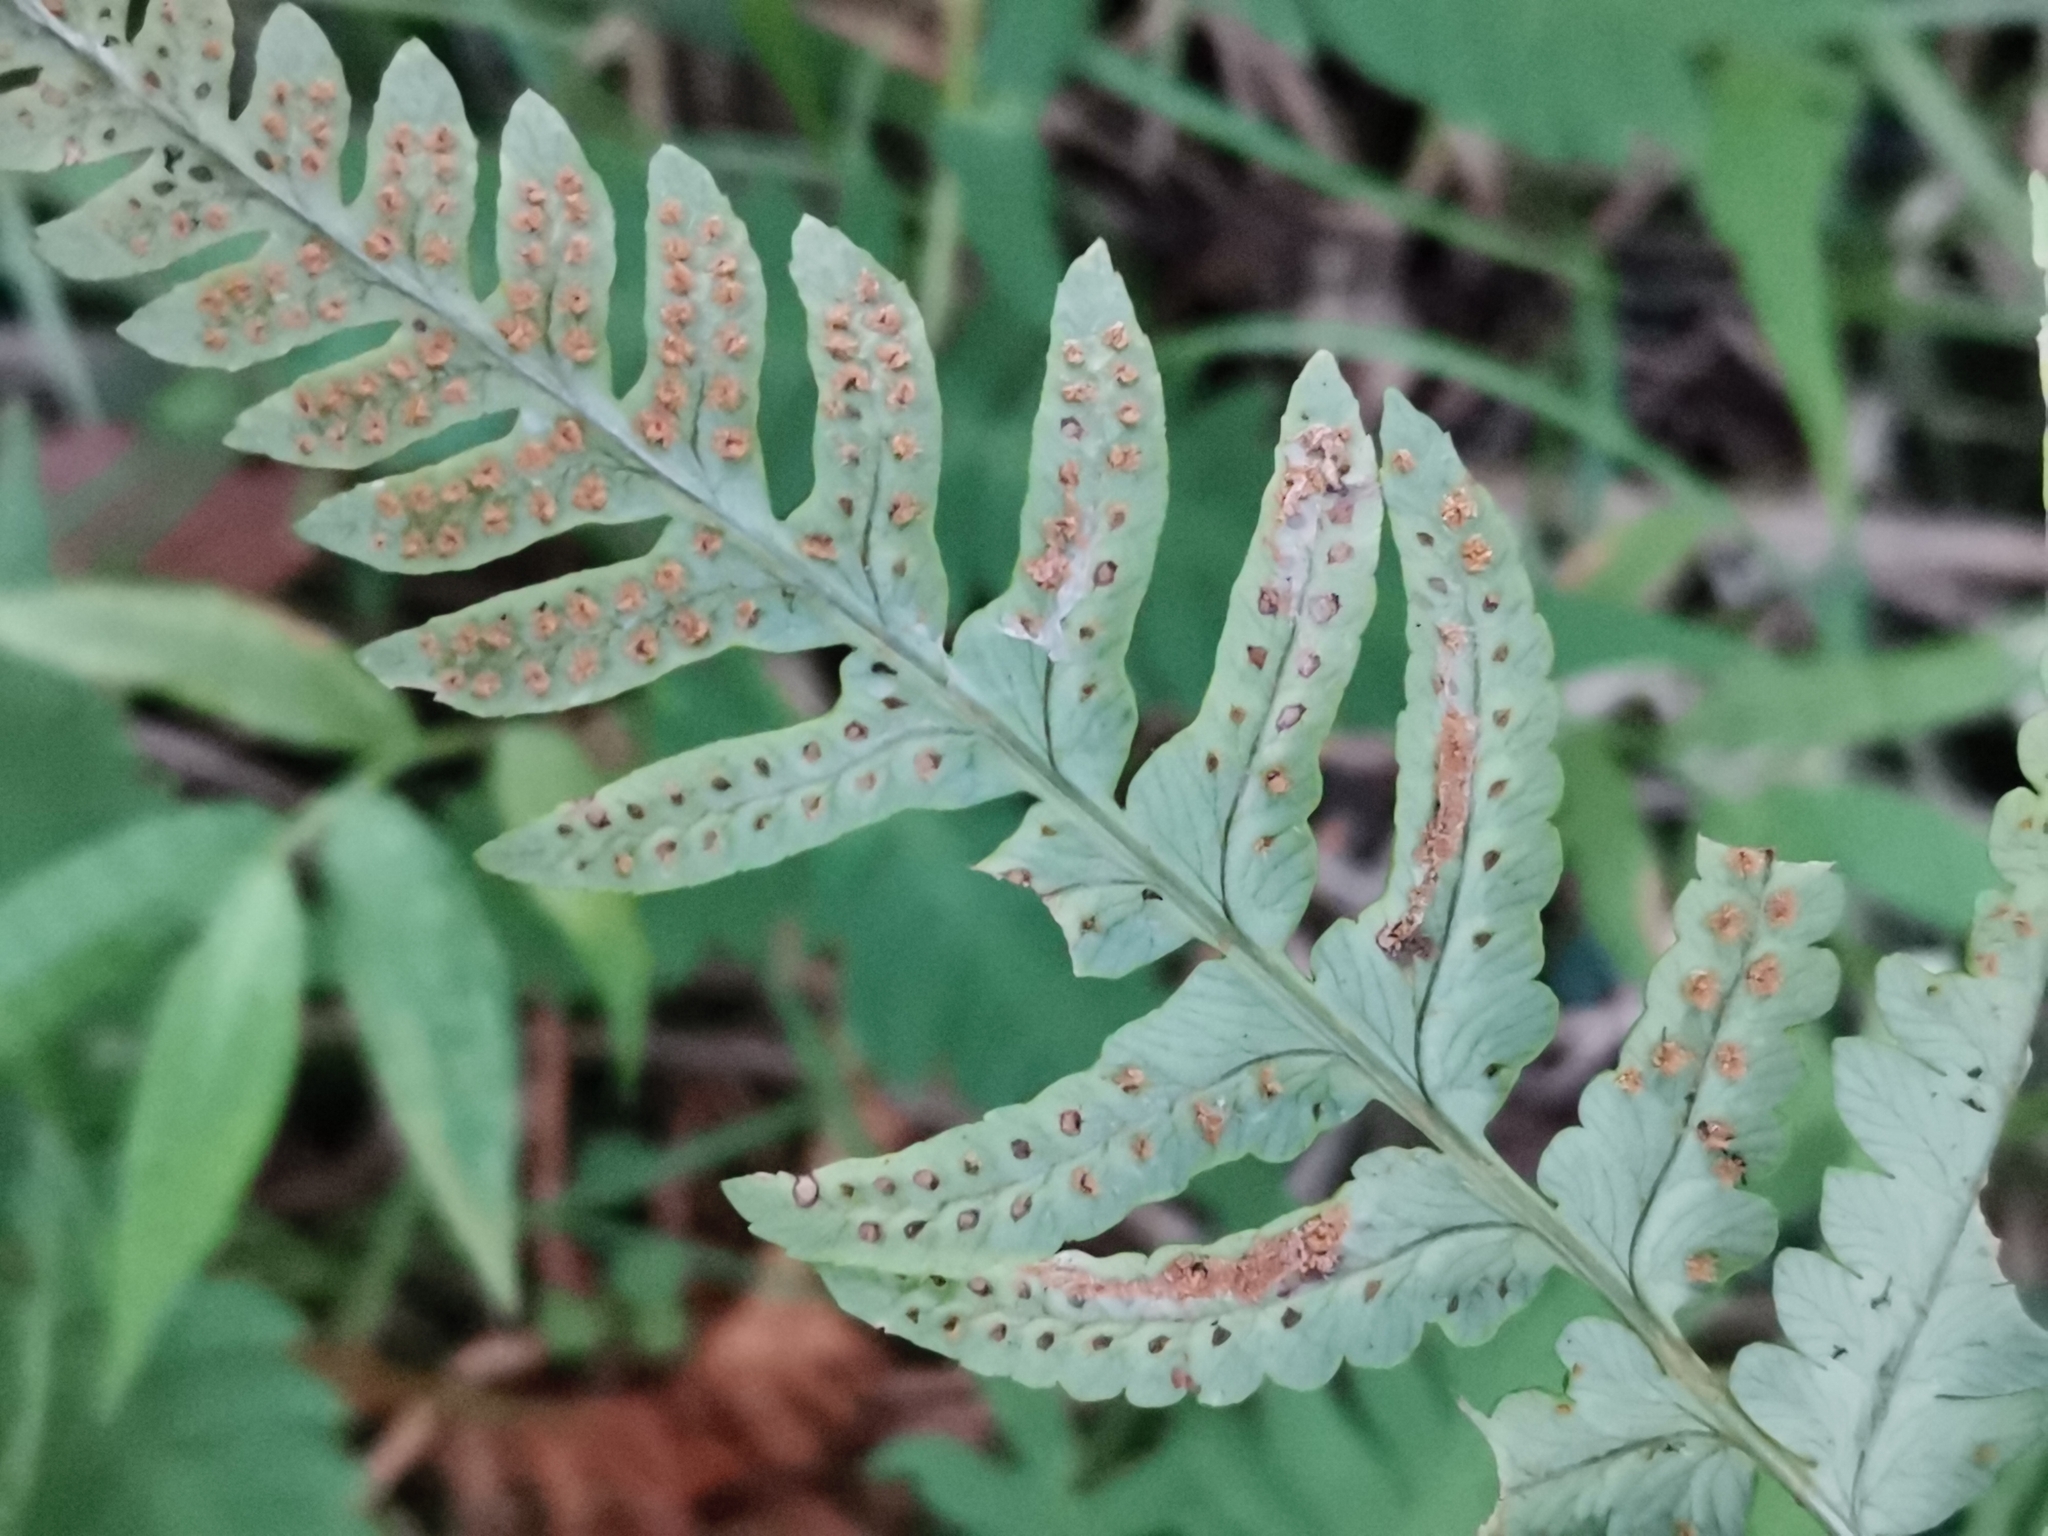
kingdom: Plantae
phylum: Tracheophyta
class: Polypodiopsida
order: Polypodiales
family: Dryopteridaceae
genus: Dryopteris
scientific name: Dryopteris lacera
